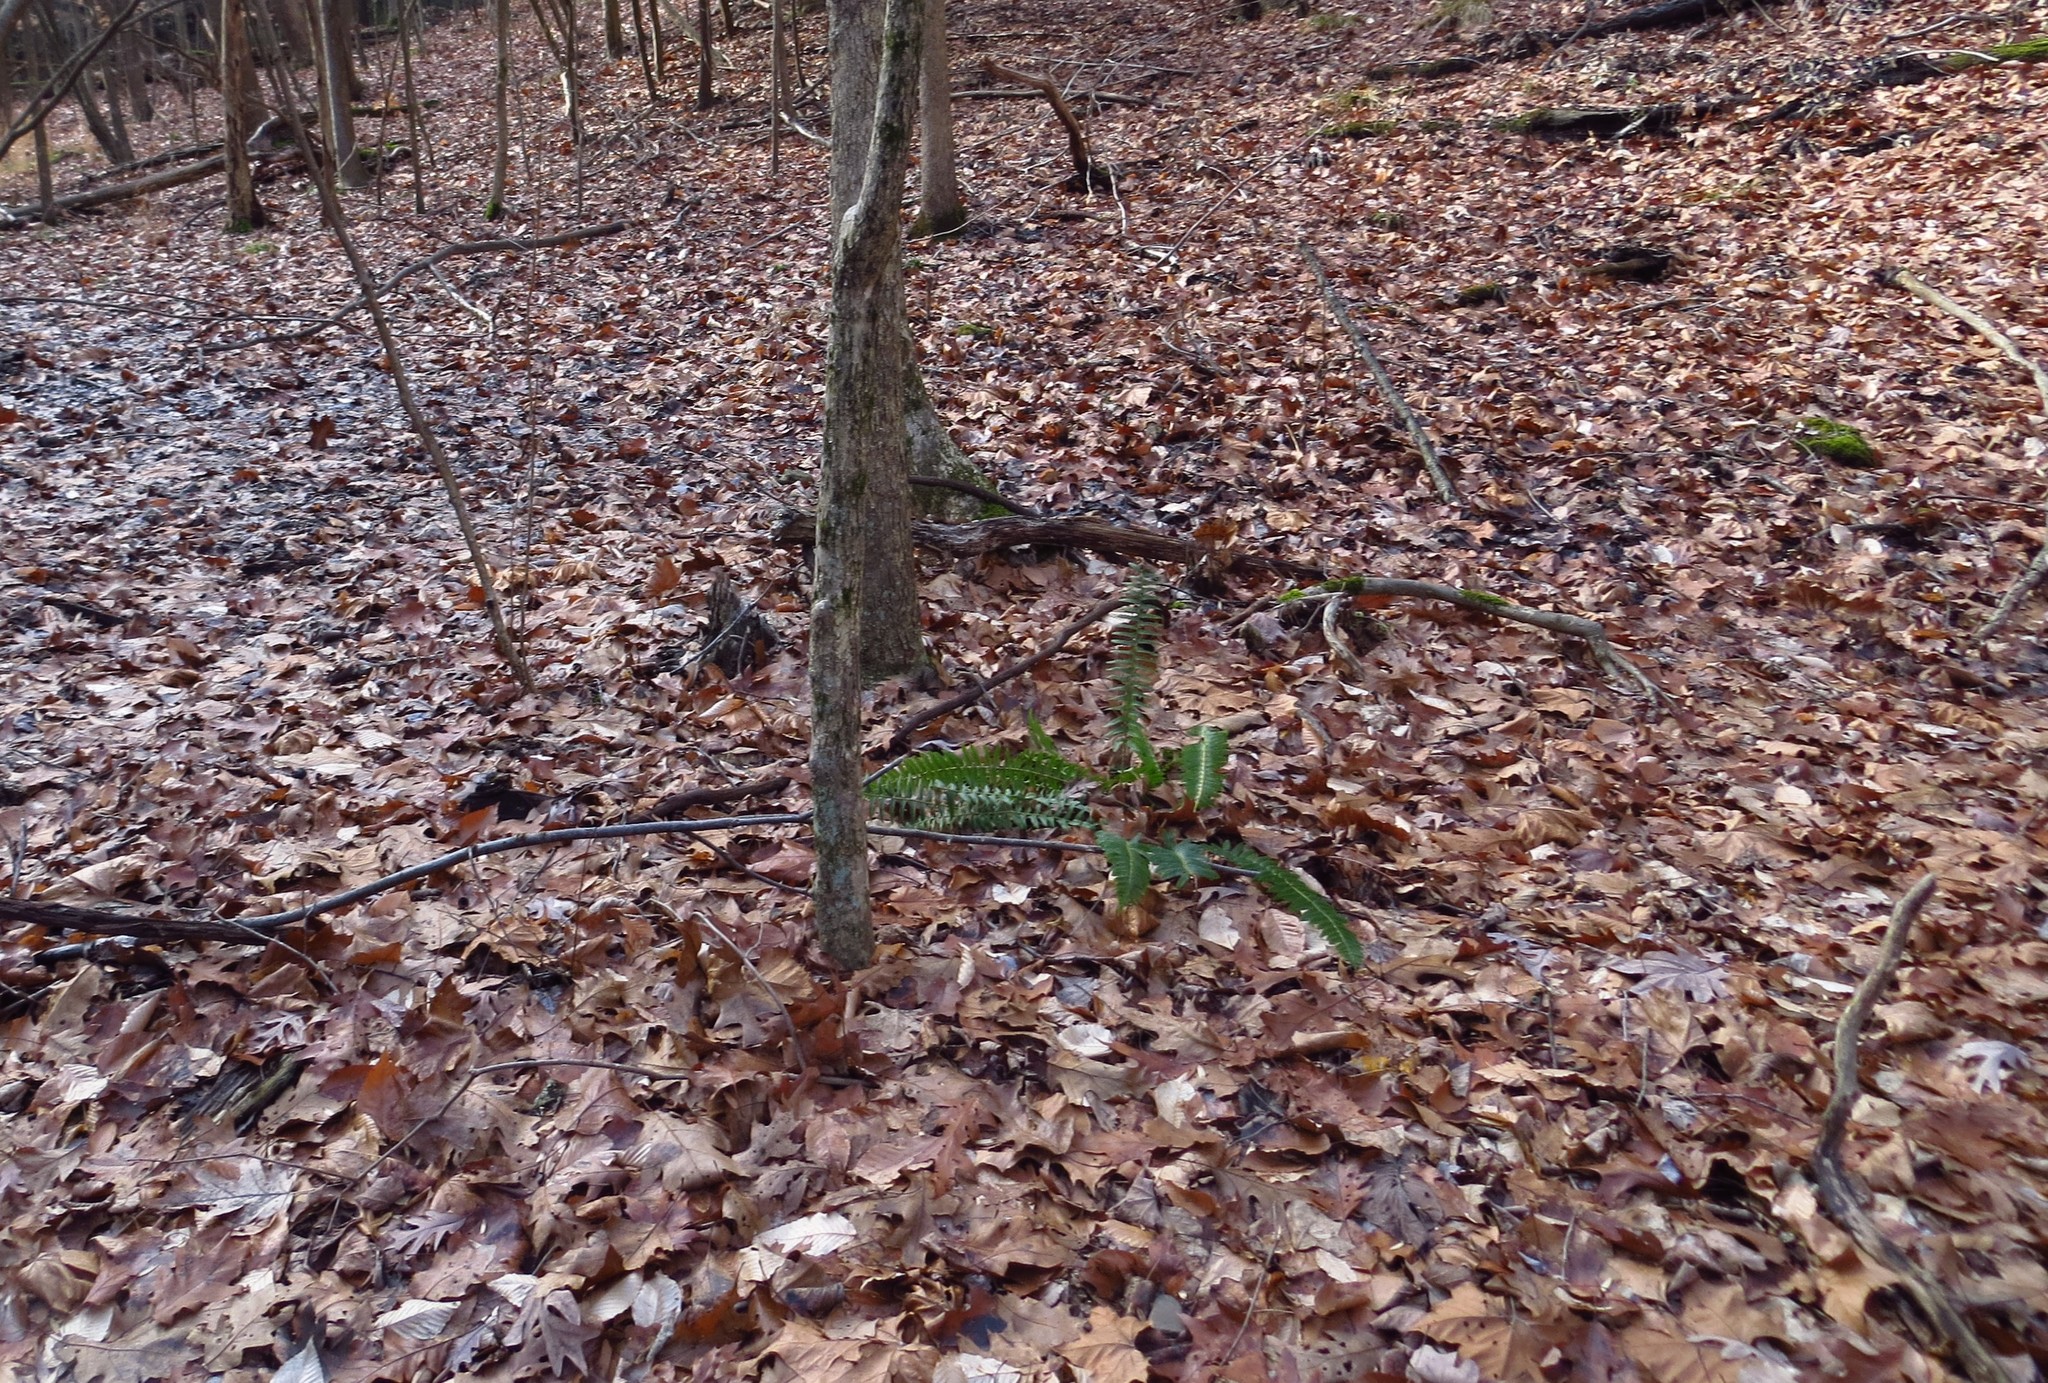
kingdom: Plantae
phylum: Tracheophyta
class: Polypodiopsida
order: Polypodiales
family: Dryopteridaceae
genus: Polystichum
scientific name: Polystichum acrostichoides
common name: Christmas fern
